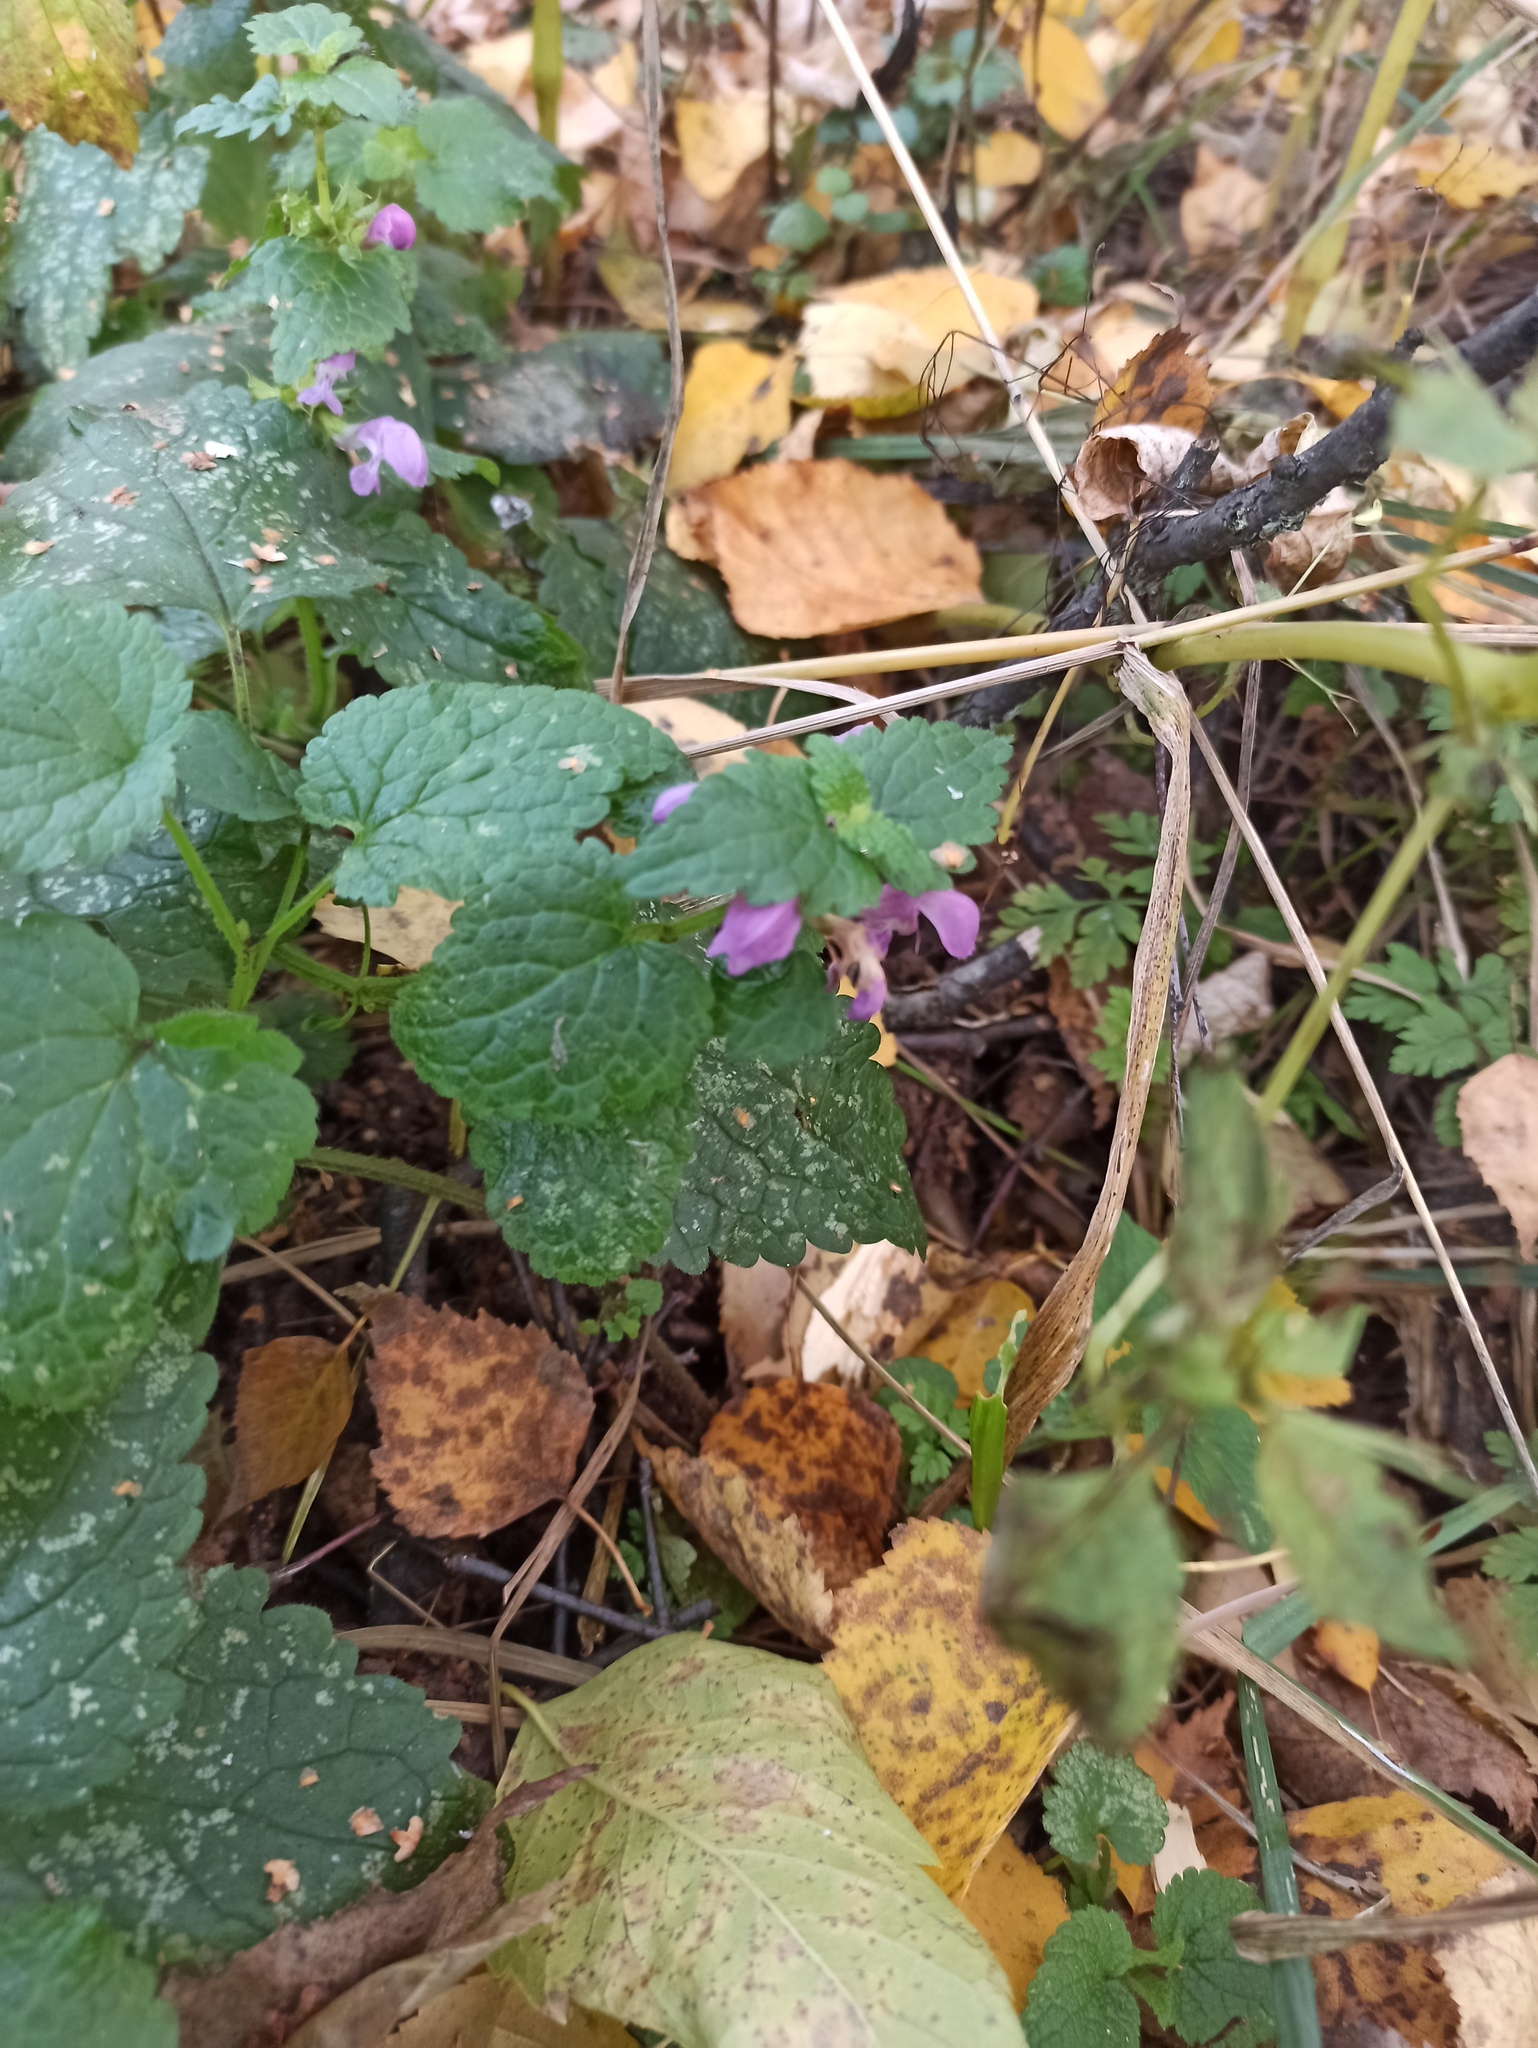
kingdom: Plantae
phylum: Tracheophyta
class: Magnoliopsida
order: Lamiales
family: Lamiaceae
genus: Lamium
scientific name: Lamium maculatum
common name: Spotted dead-nettle
